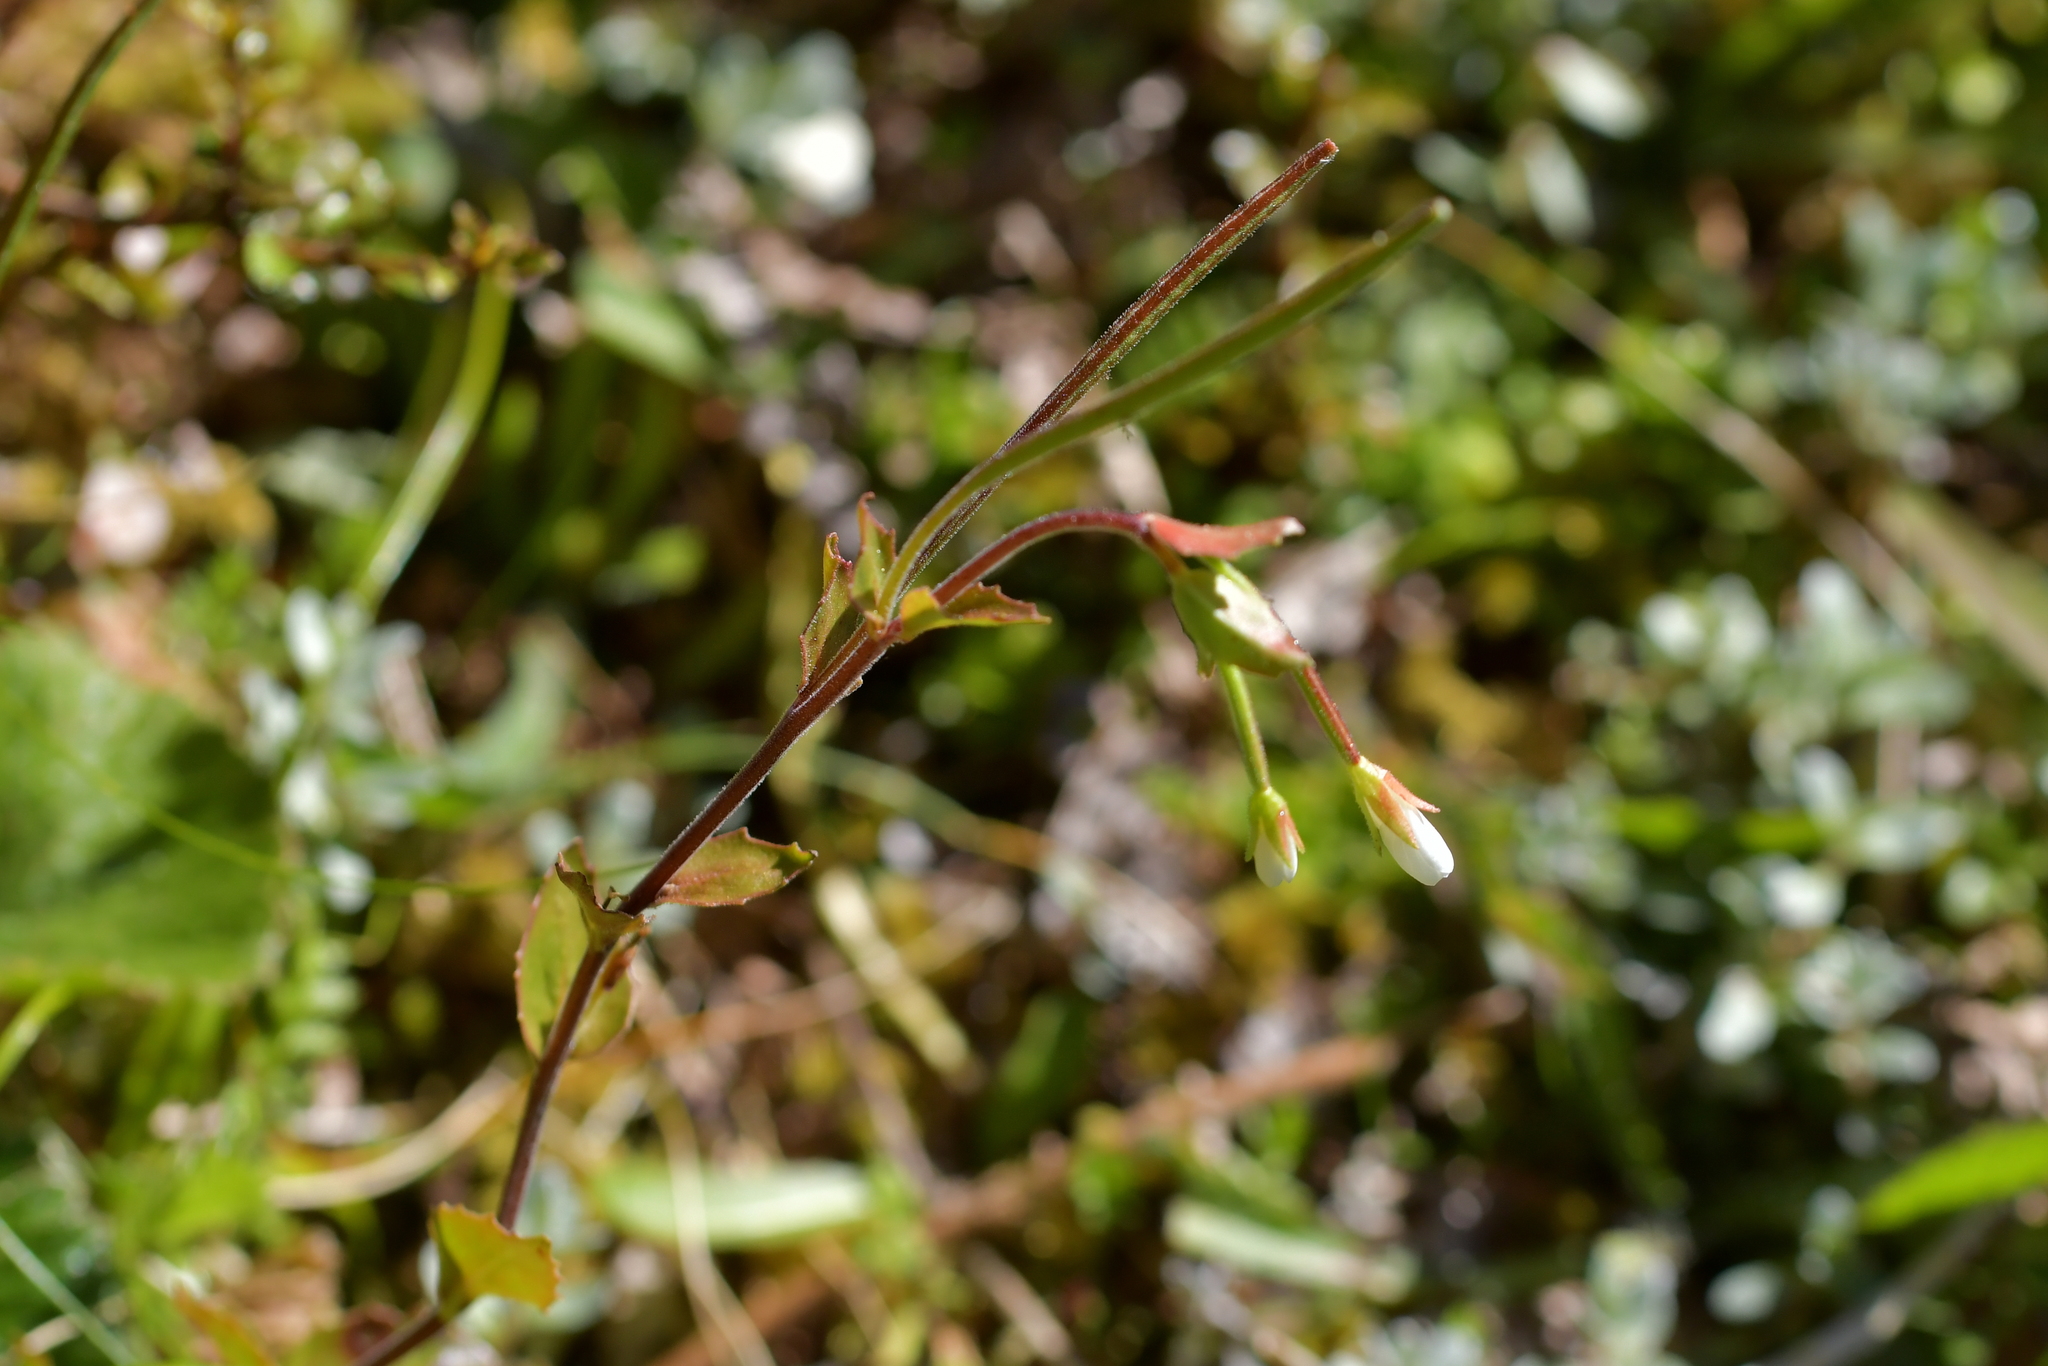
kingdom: Plantae
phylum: Tracheophyta
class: Magnoliopsida
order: Myrtales
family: Onagraceae
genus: Epilobium
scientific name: Epilobium chlorifolium
